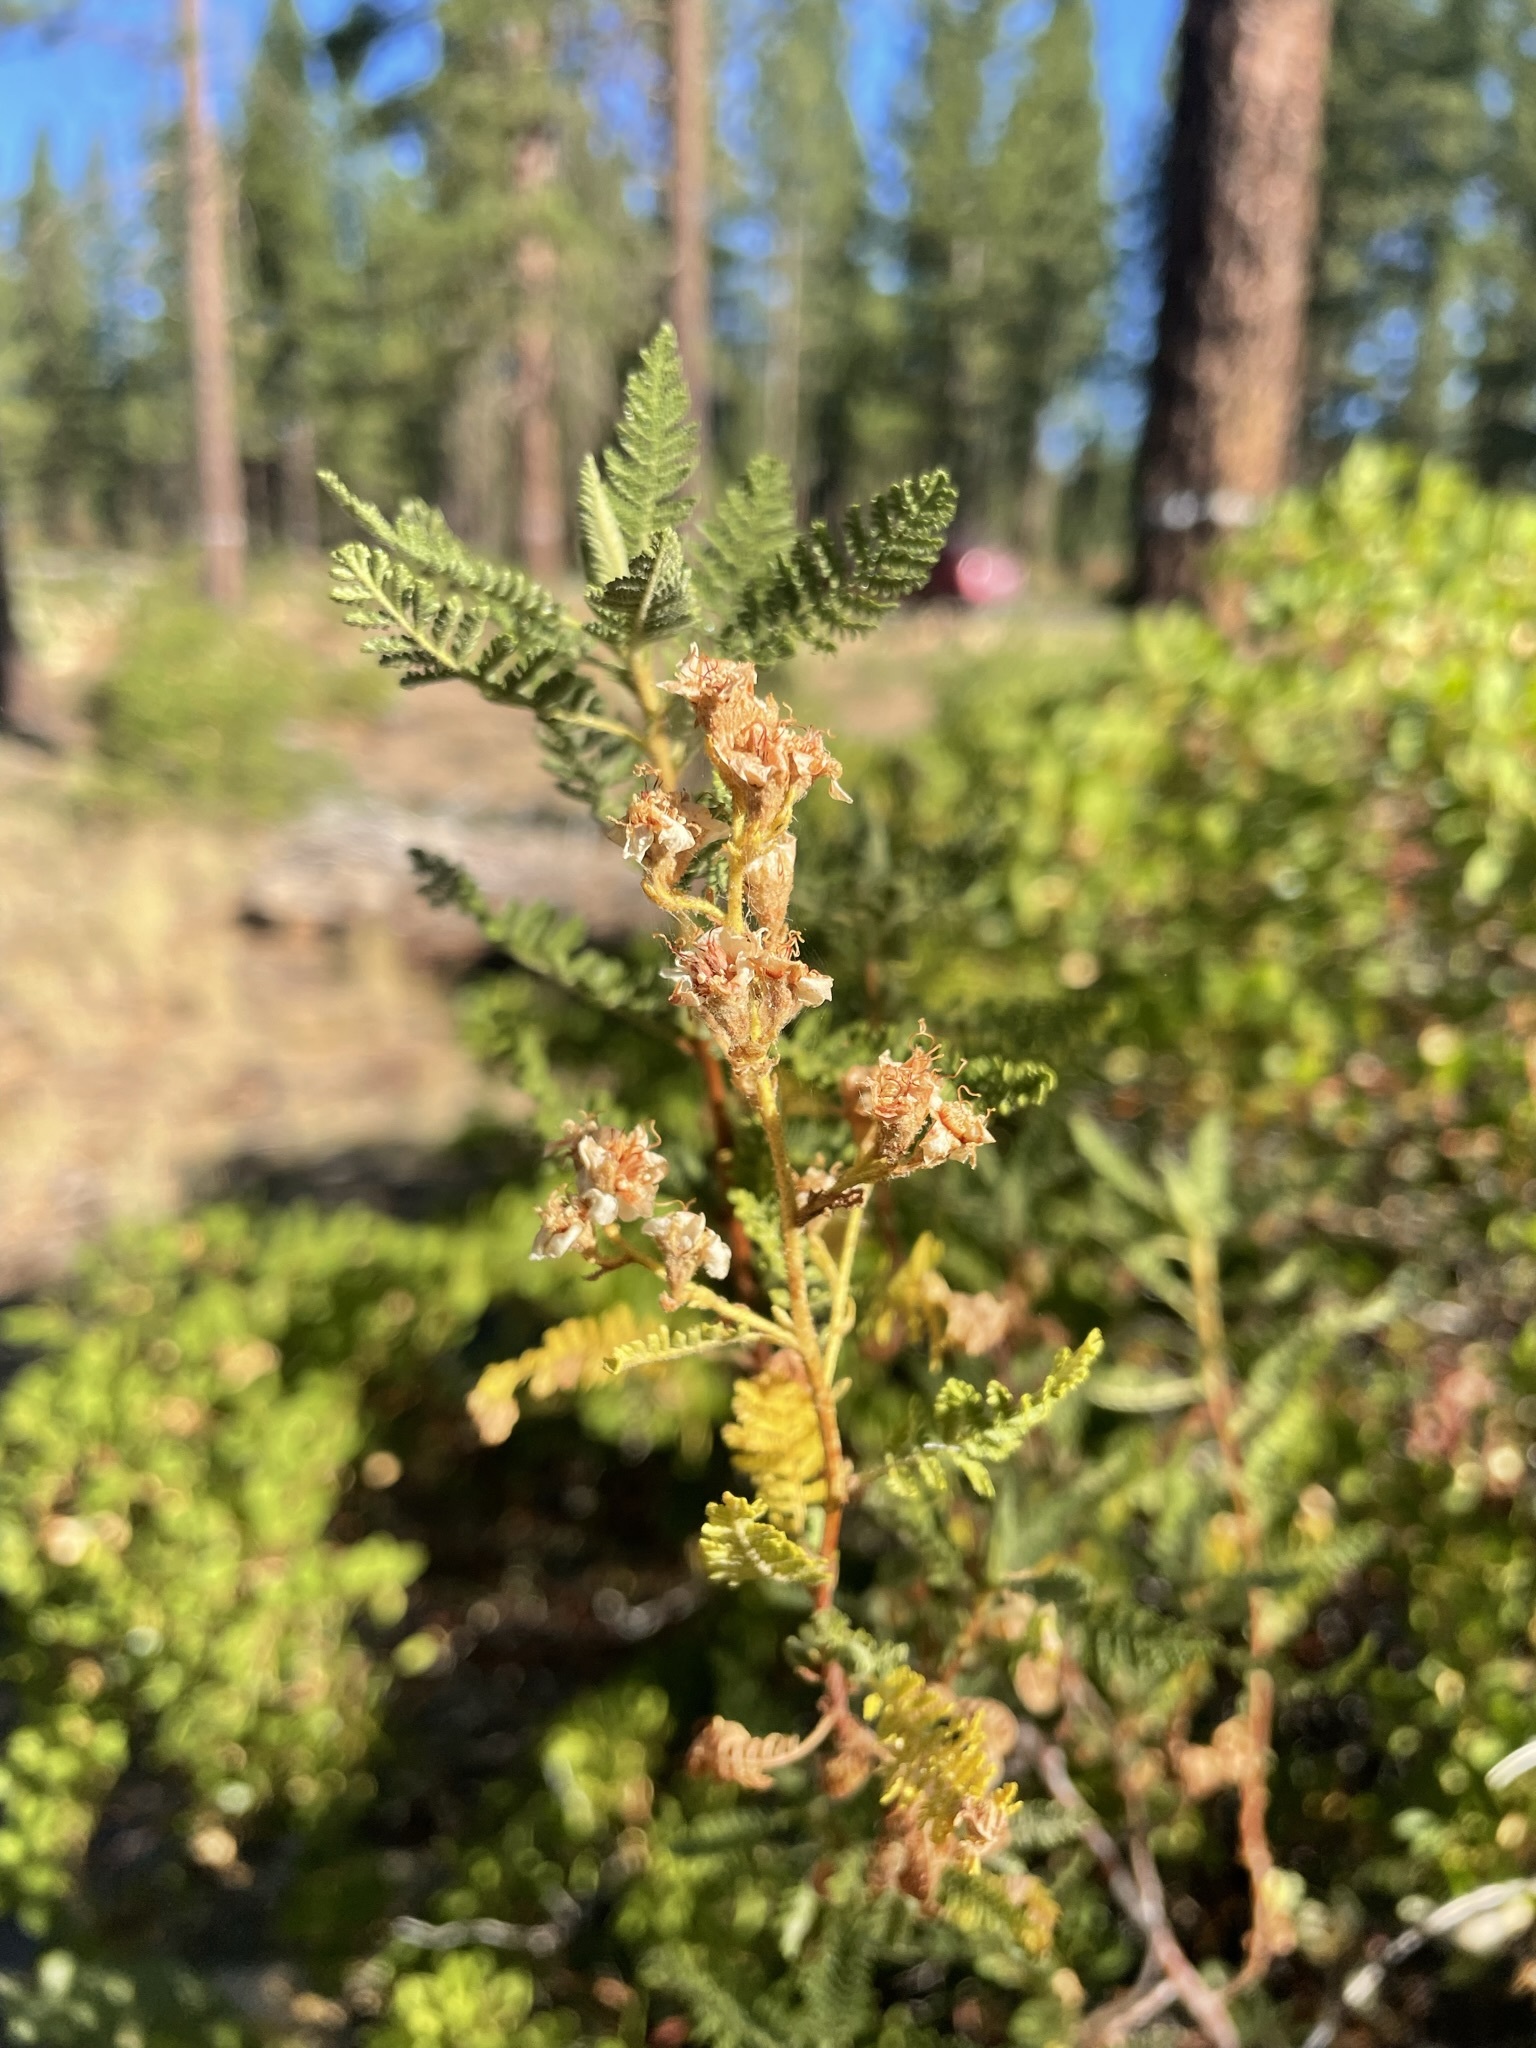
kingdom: Plantae
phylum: Tracheophyta
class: Magnoliopsida
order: Rosales
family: Rosaceae
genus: Chamaebatiaria
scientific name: Chamaebatiaria millefolium
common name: Fernbush
